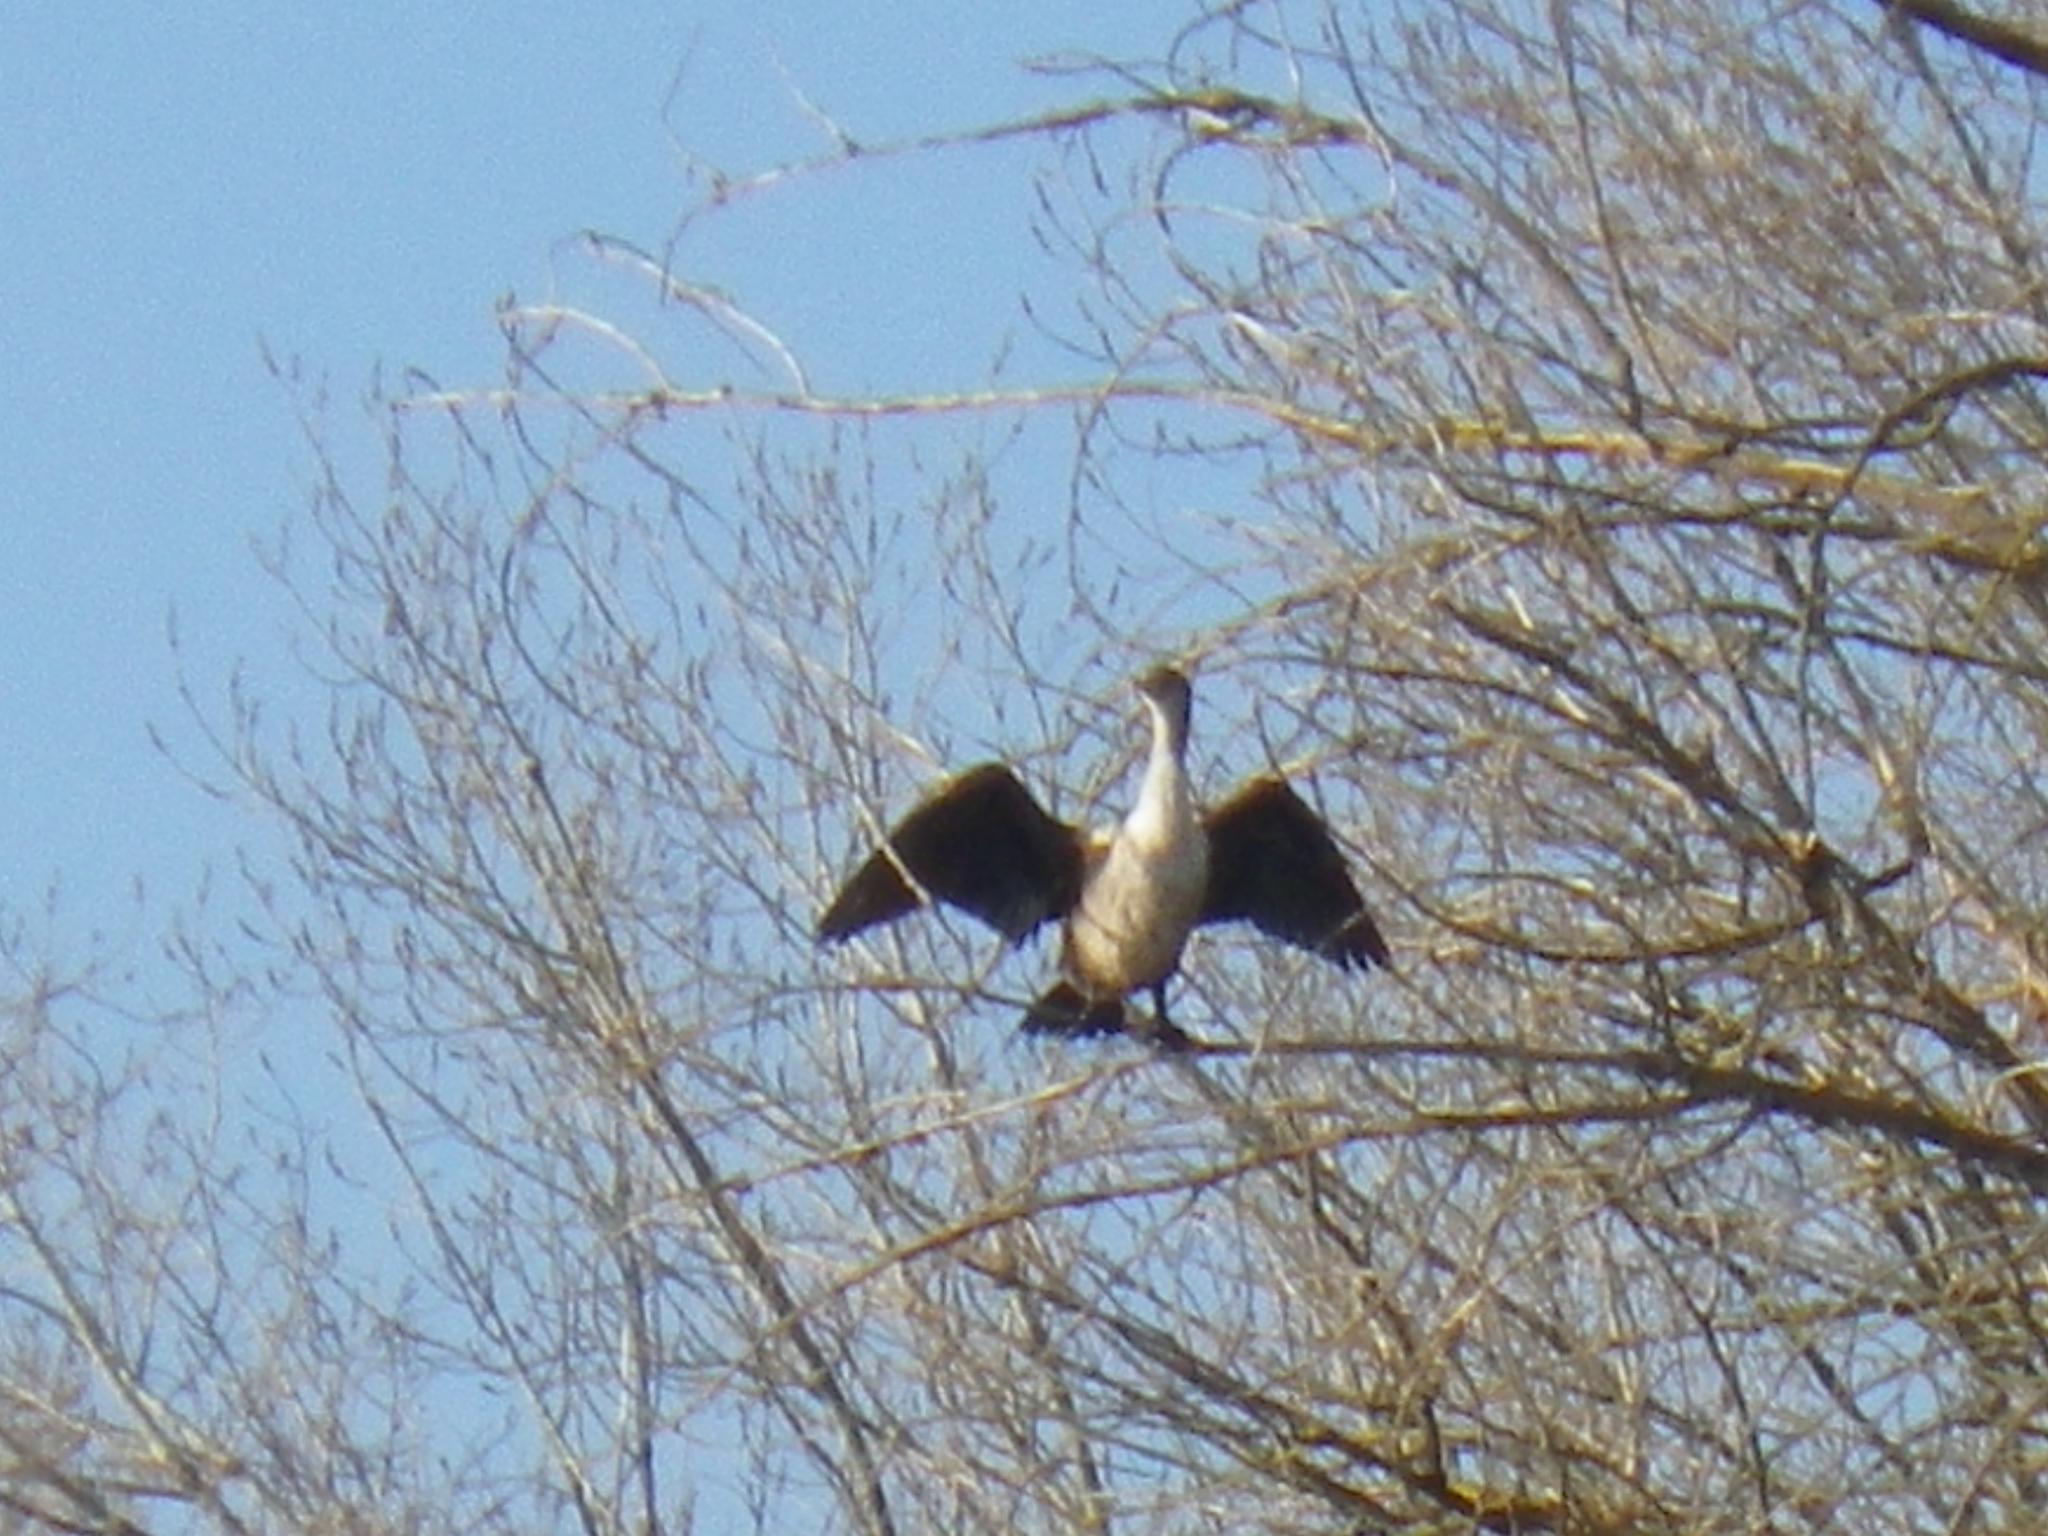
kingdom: Animalia
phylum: Chordata
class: Aves
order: Suliformes
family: Phalacrocoracidae
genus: Phalacrocorax
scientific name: Phalacrocorax auritus
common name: Double-crested cormorant
